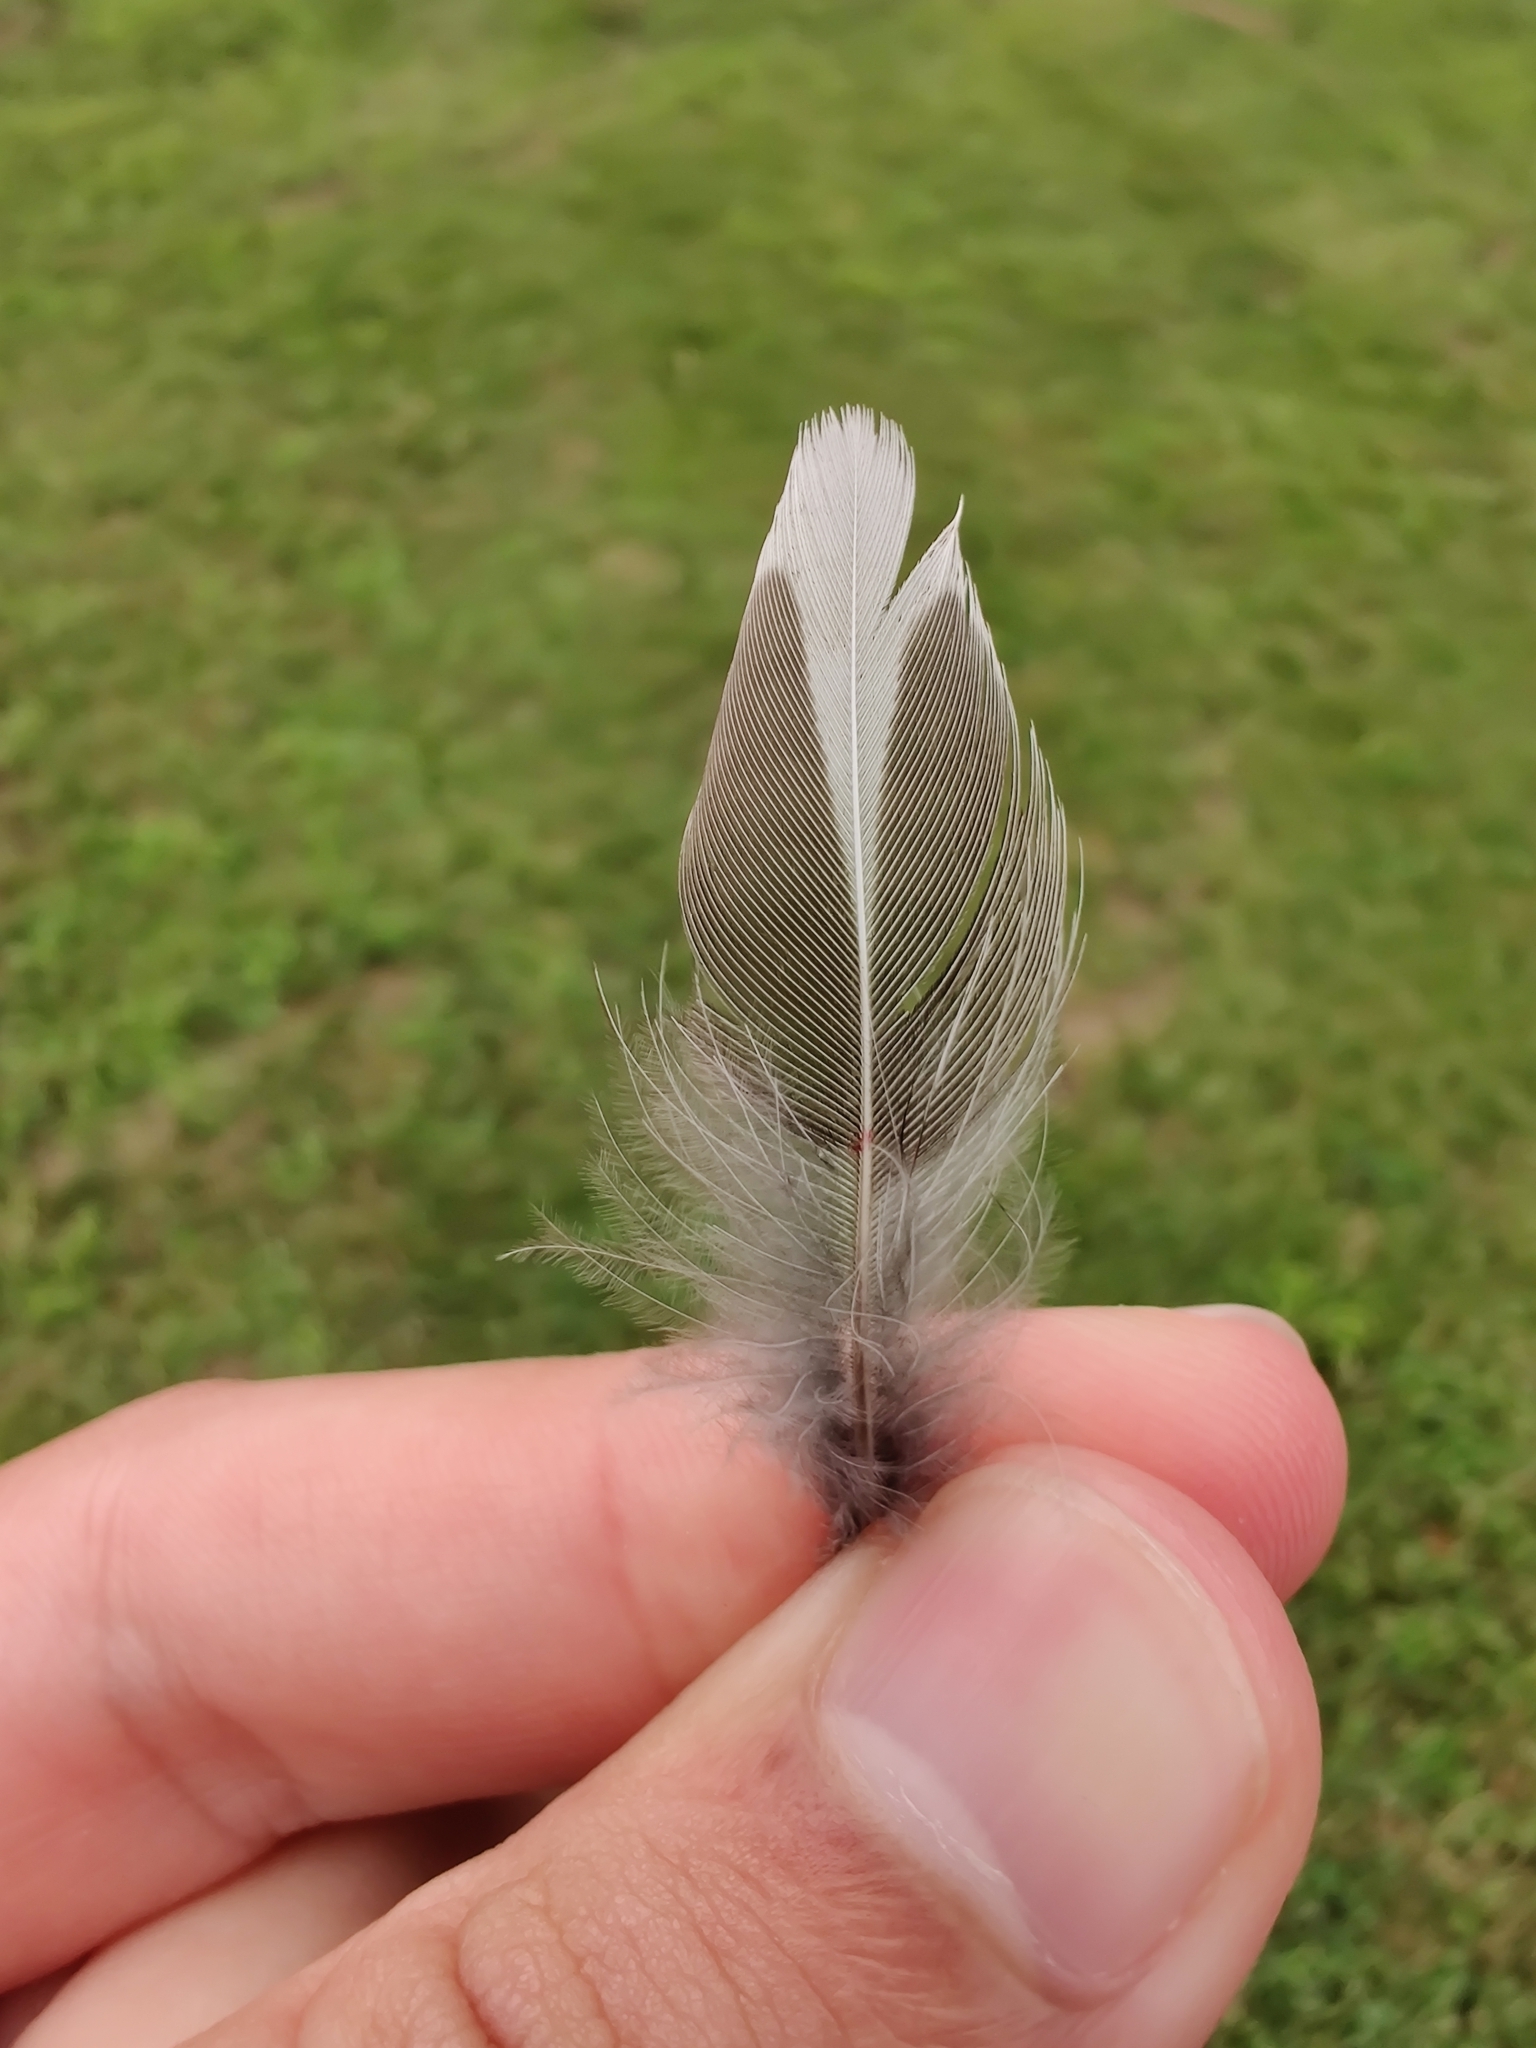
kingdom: Animalia
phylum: Chordata
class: Aves
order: Passeriformes
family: Turdidae
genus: Turdus
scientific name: Turdus migratorius
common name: American robin
